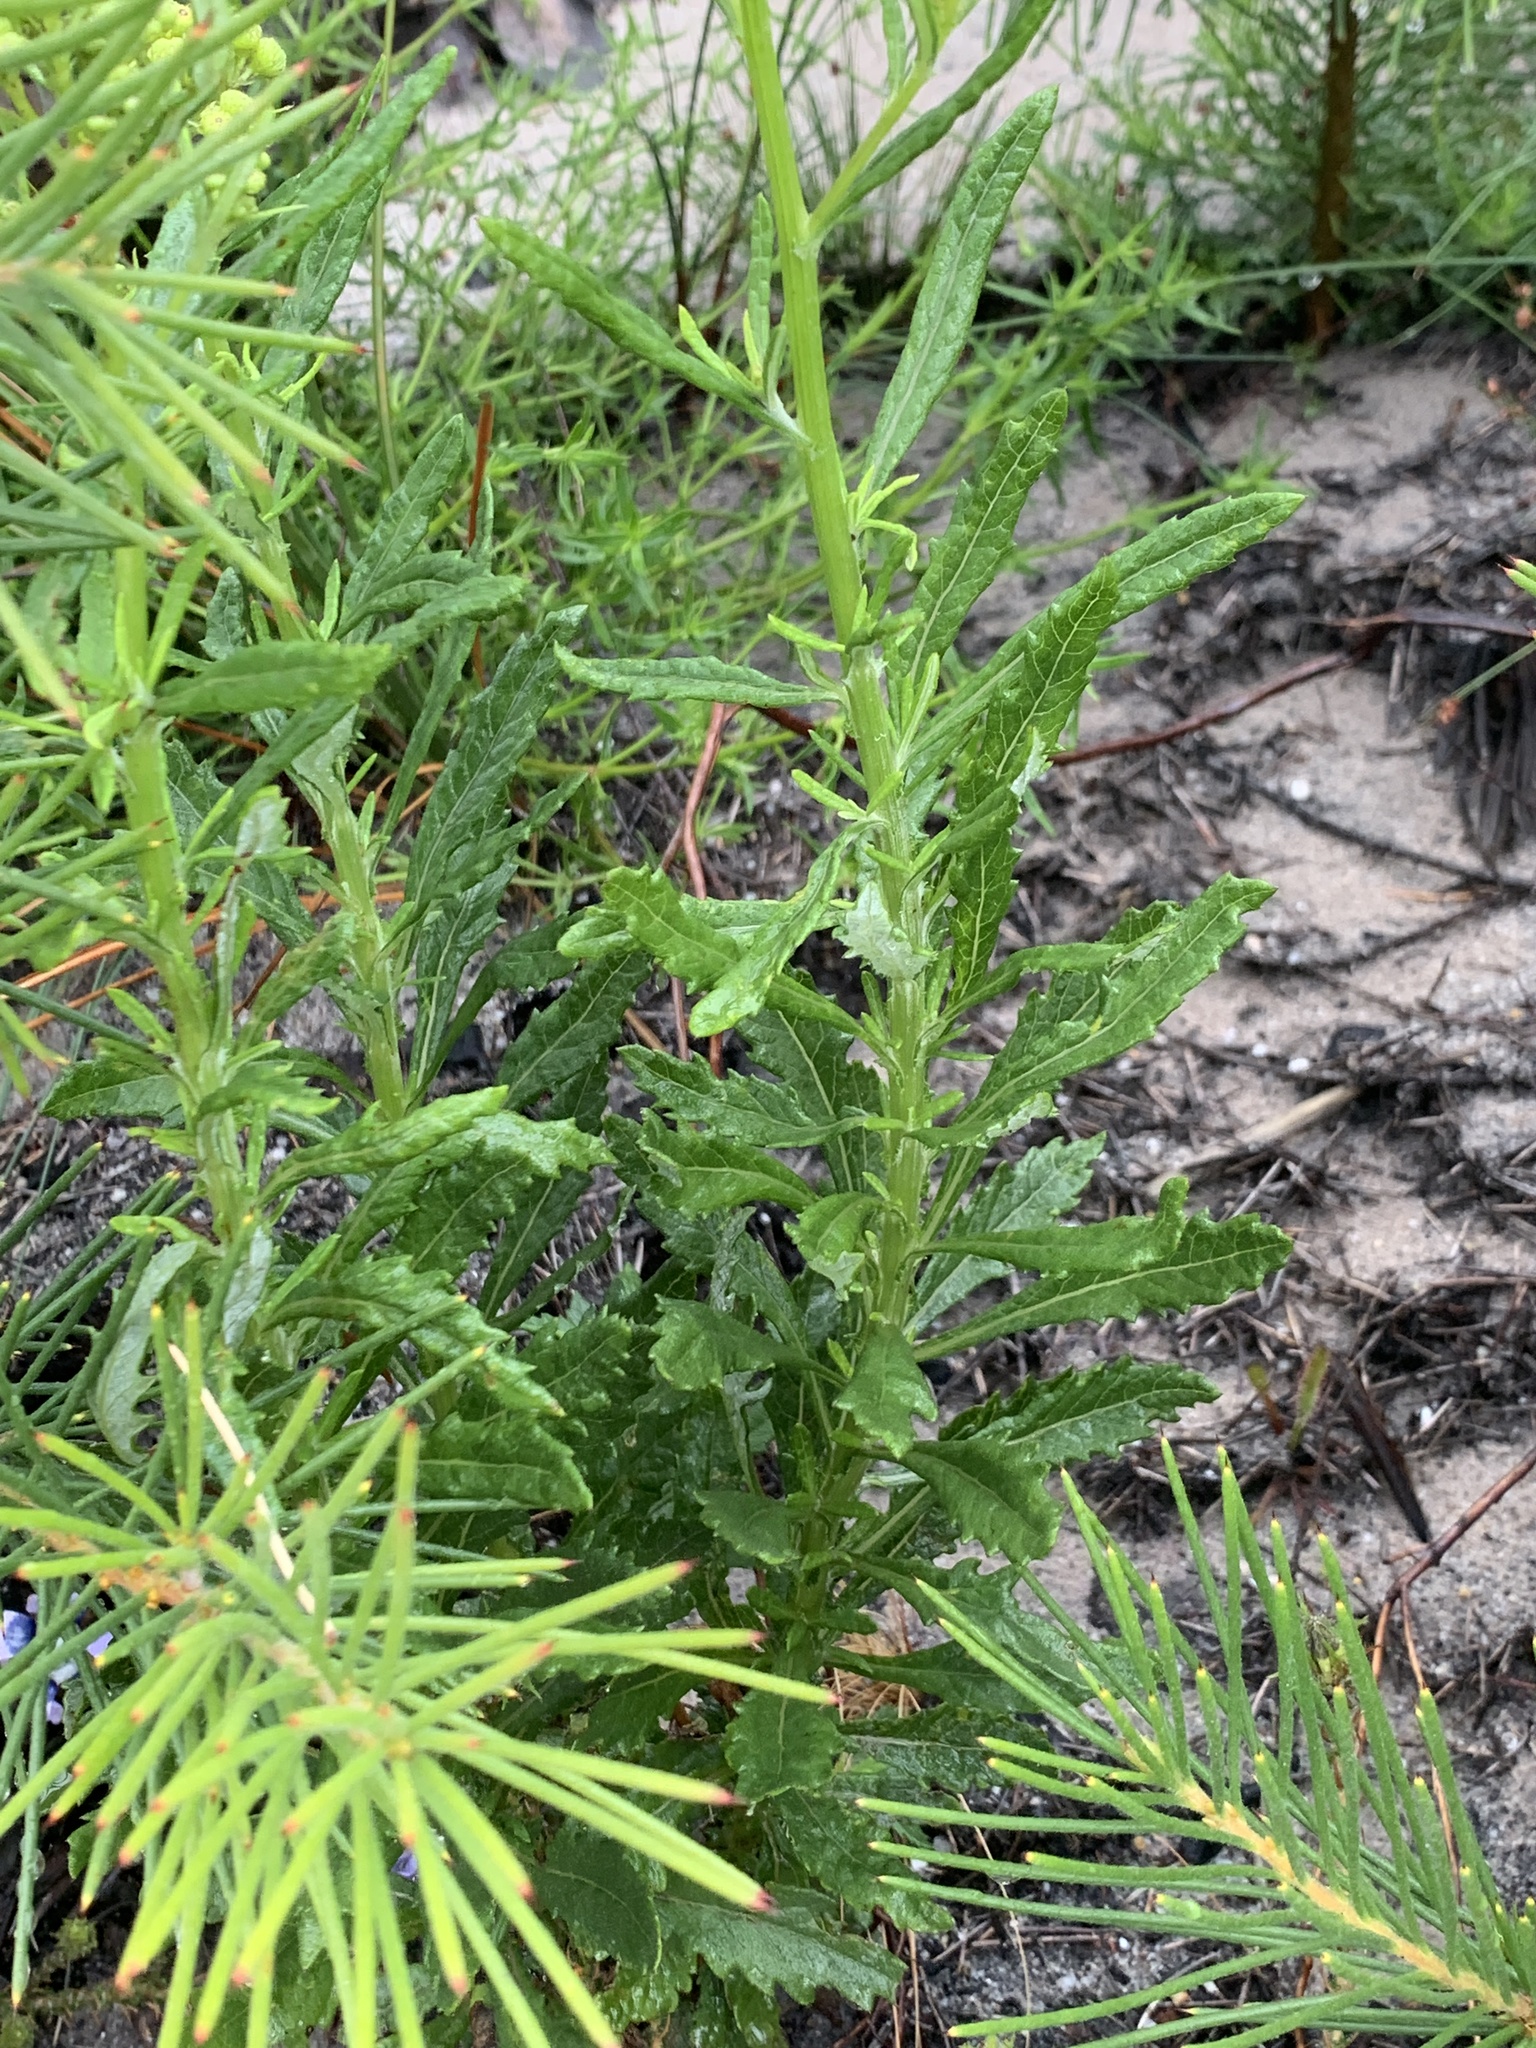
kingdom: Plantae
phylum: Tracheophyta
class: Magnoliopsida
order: Asterales
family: Asteraceae
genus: Senecio
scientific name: Senecio pterophorus
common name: Shoddy ragwort
